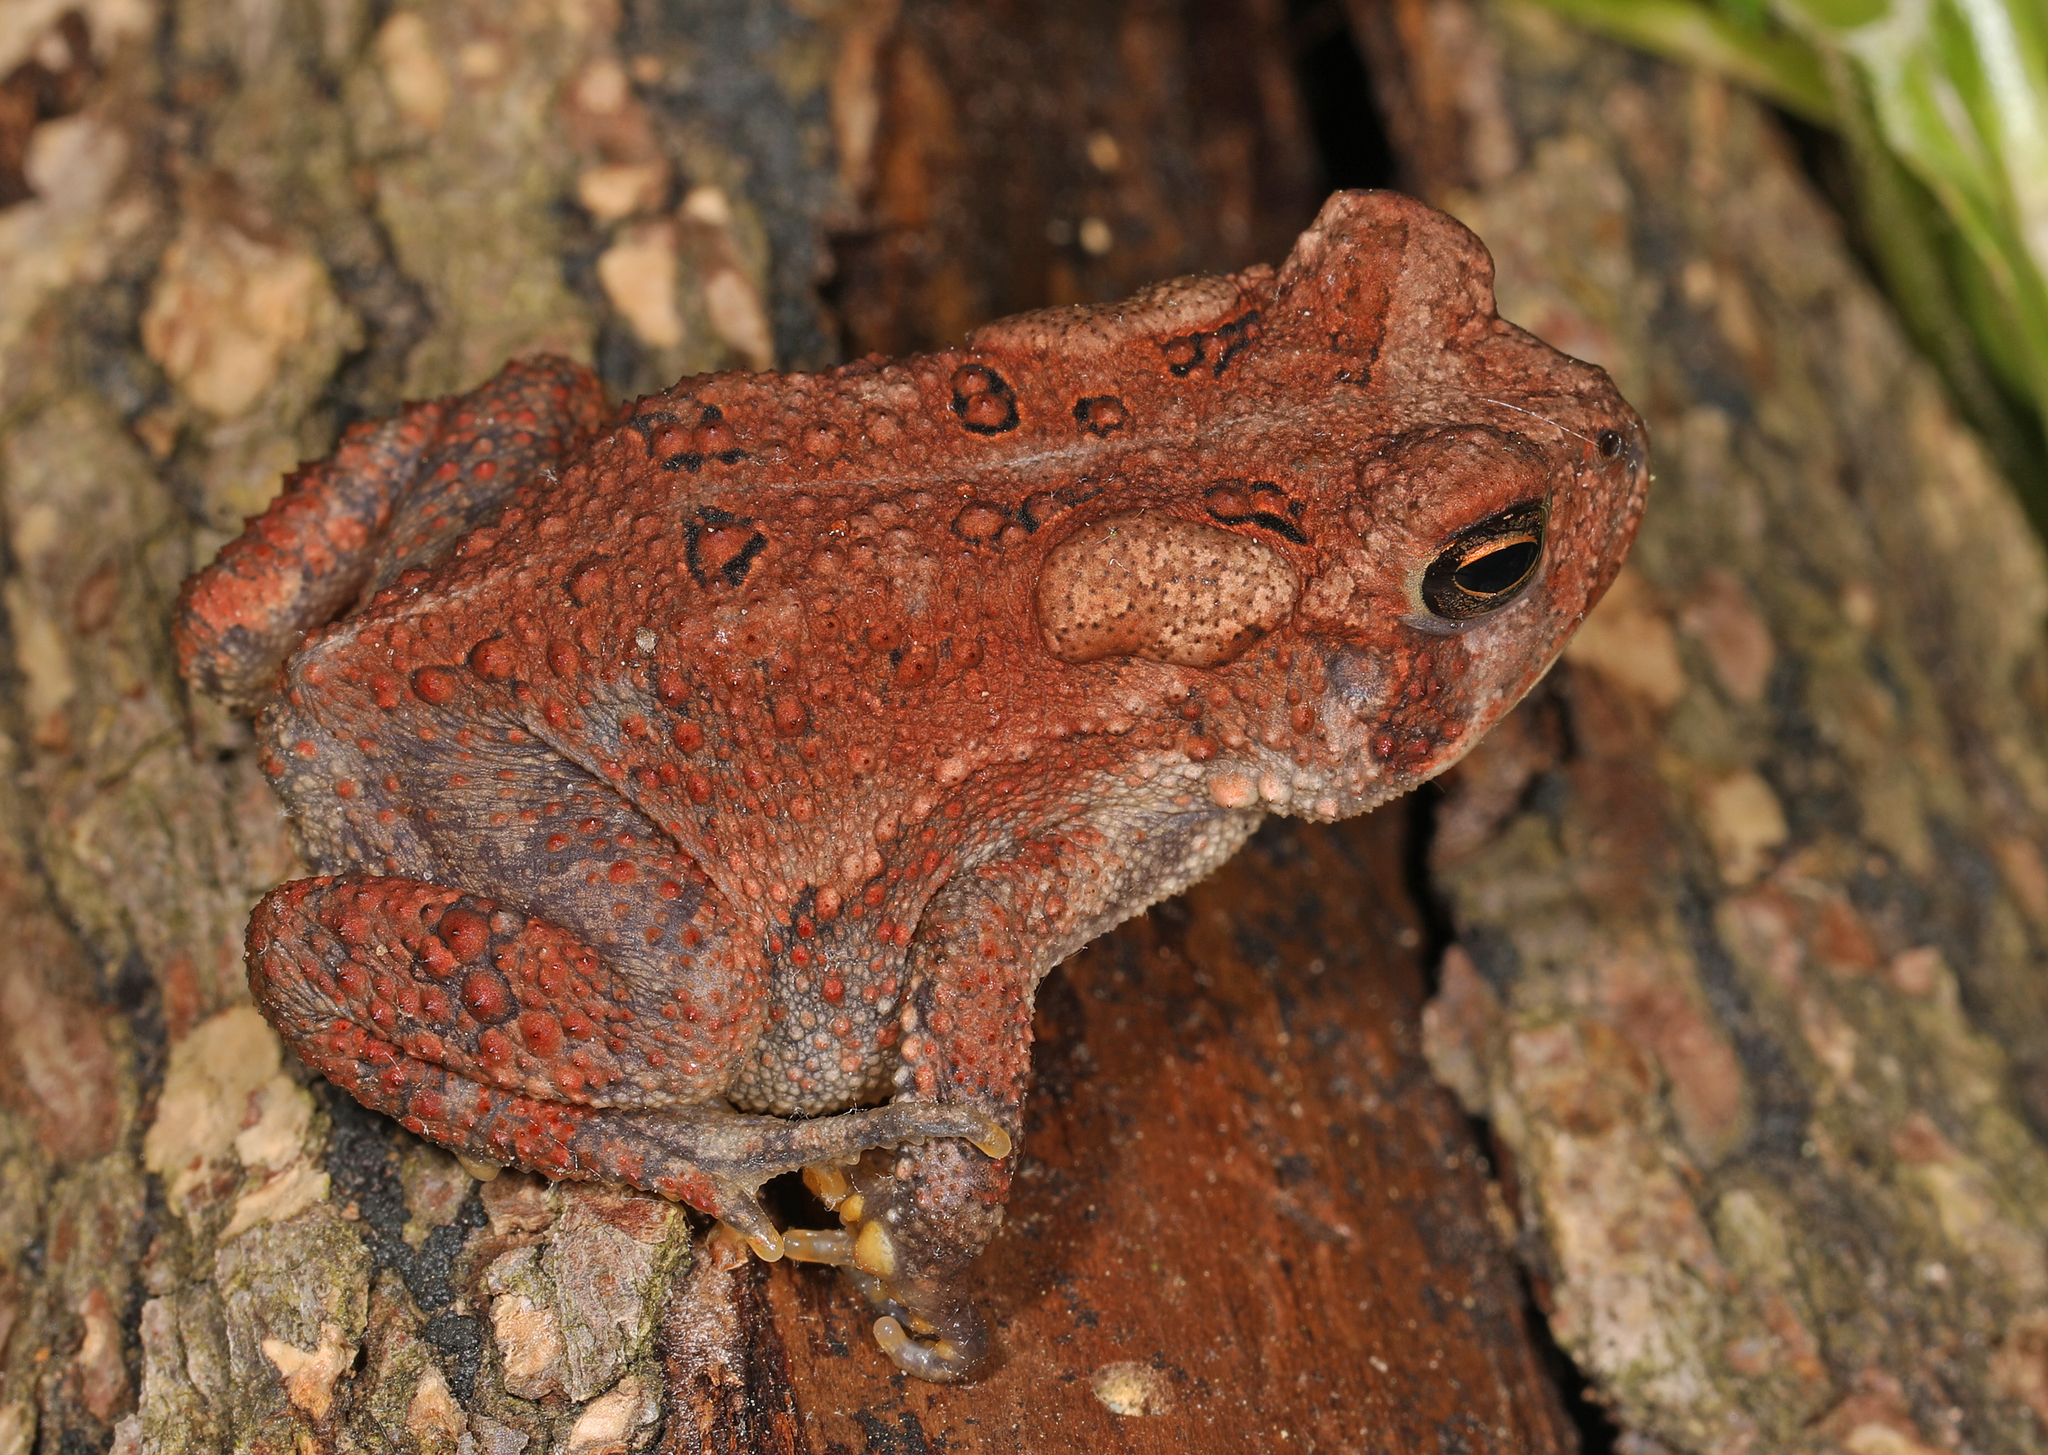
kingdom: Animalia
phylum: Chordata
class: Amphibia
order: Anura
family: Bufonidae
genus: Anaxyrus
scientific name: Anaxyrus americanus
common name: American toad
